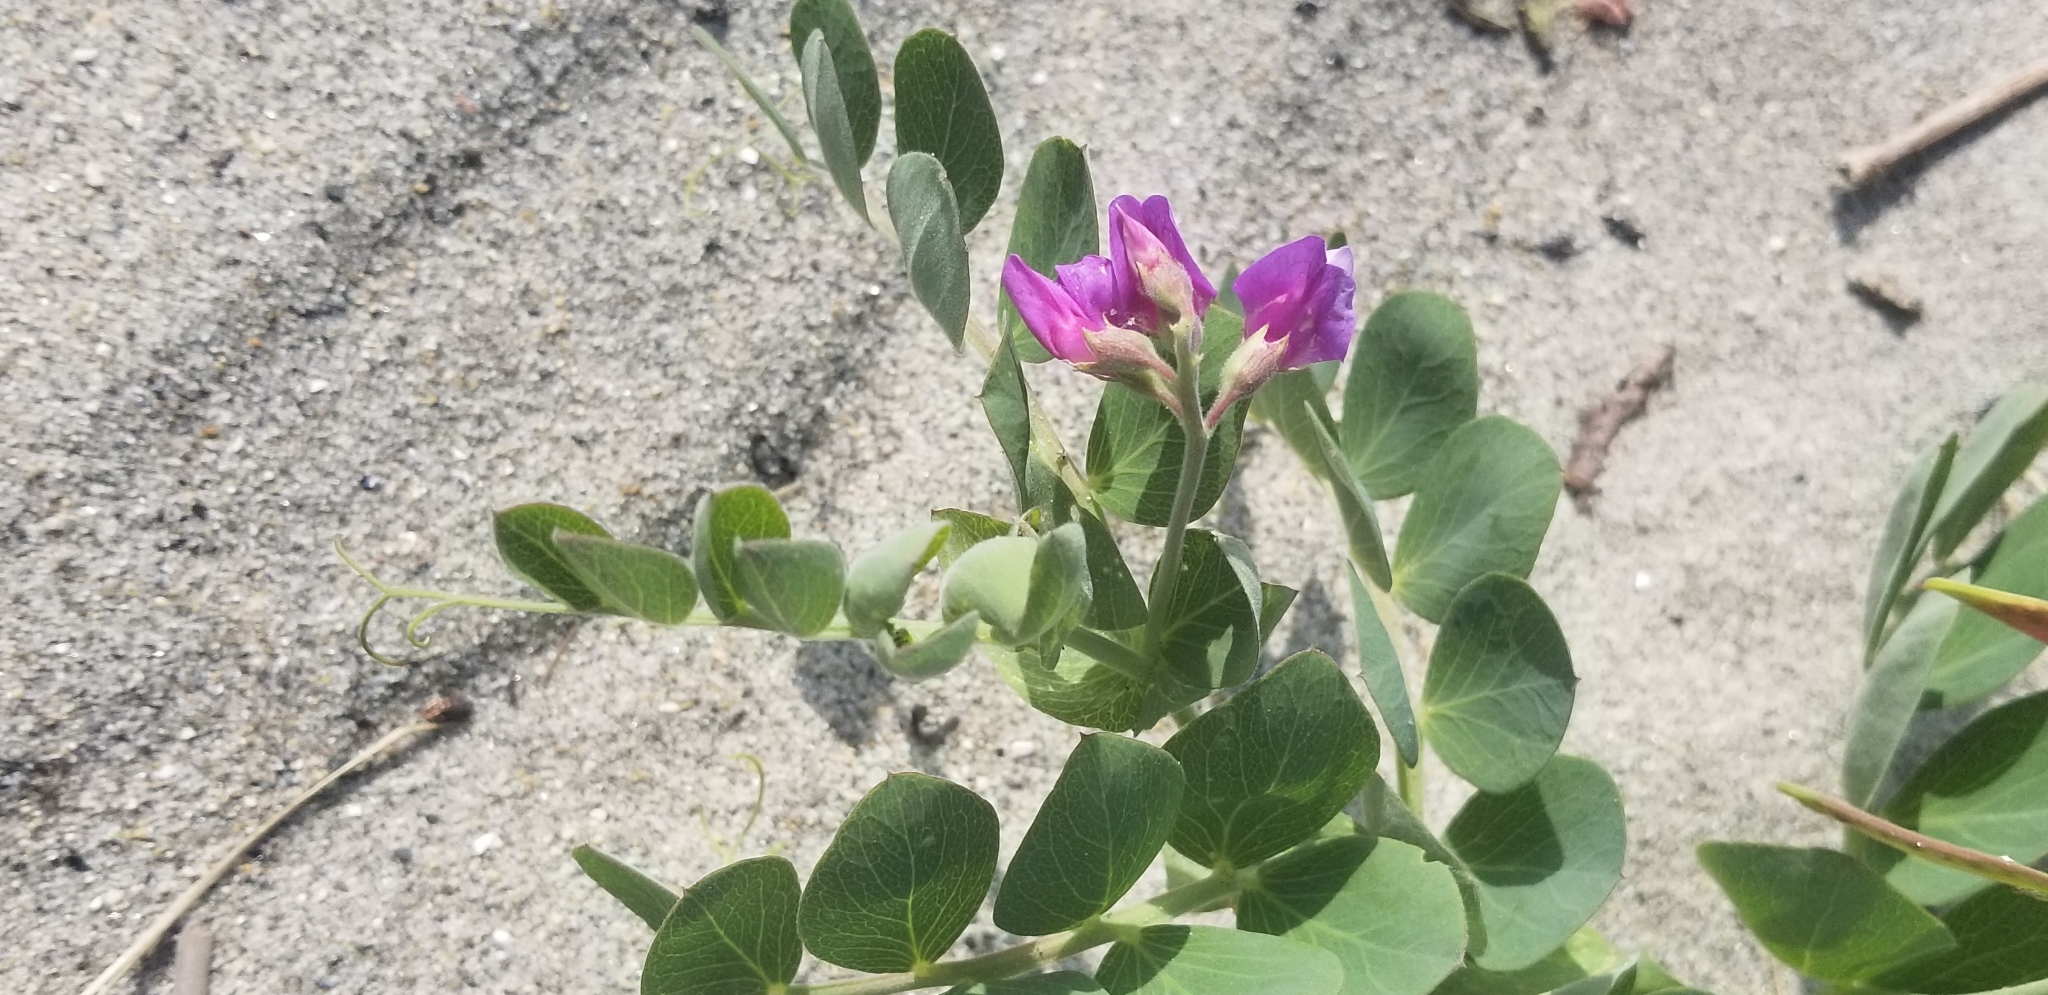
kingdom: Plantae
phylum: Tracheophyta
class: Magnoliopsida
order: Fabales
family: Fabaceae
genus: Lathyrus
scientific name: Lathyrus japonicus
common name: Sea pea
